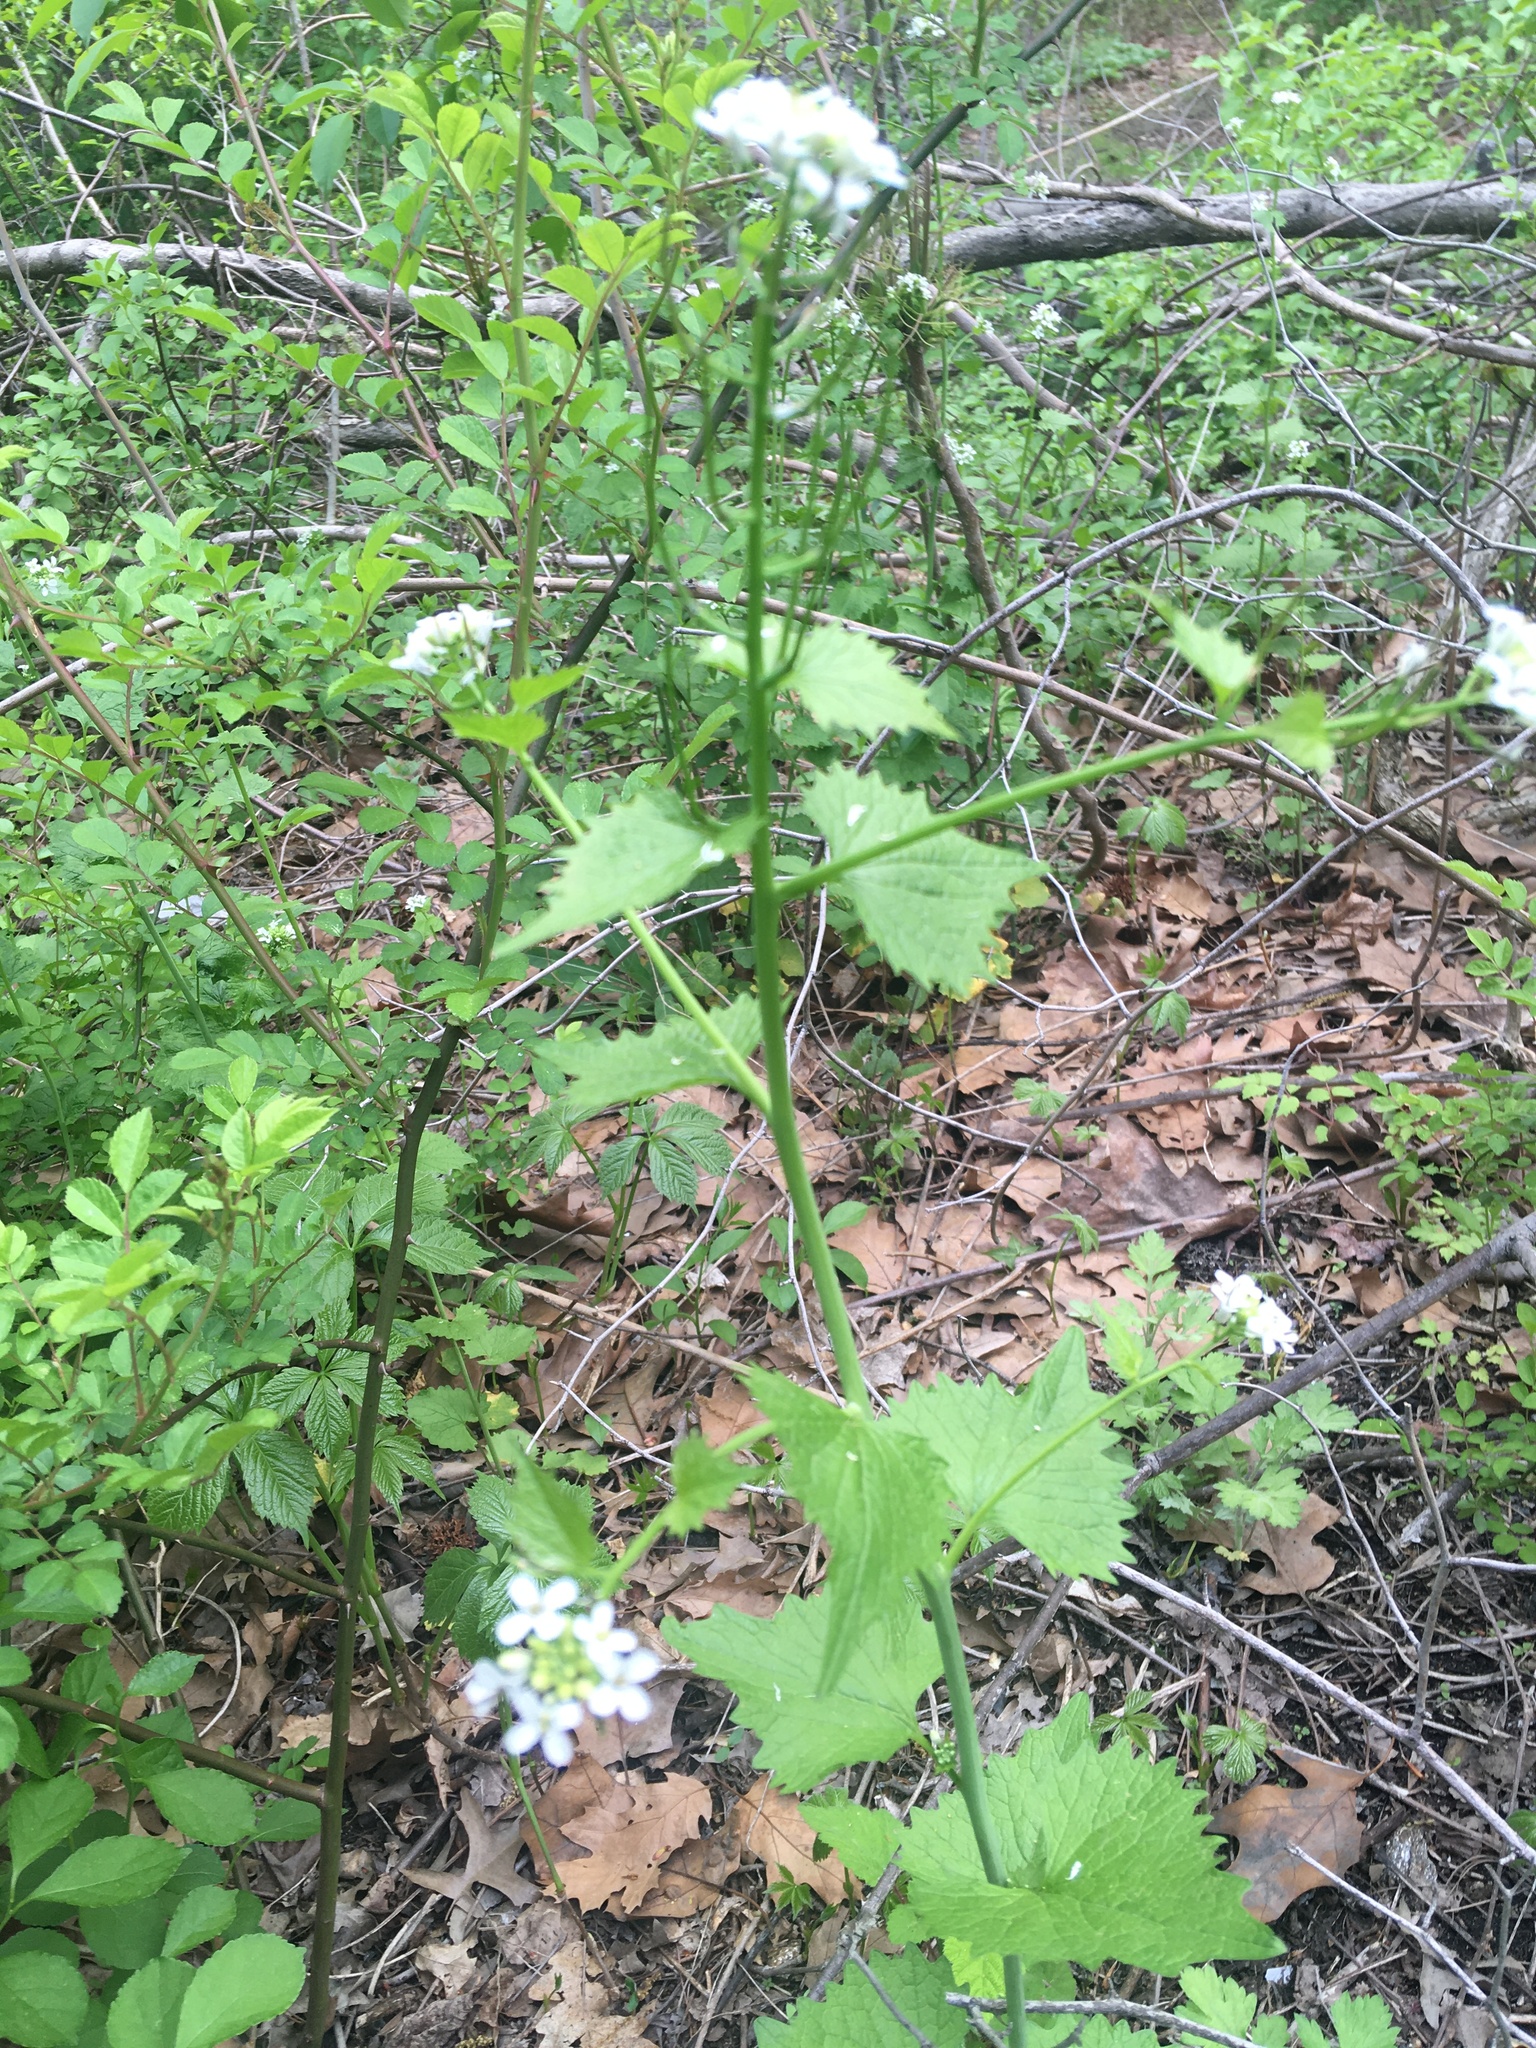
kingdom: Plantae
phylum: Tracheophyta
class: Magnoliopsida
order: Brassicales
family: Brassicaceae
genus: Alliaria
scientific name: Alliaria petiolata
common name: Garlic mustard
